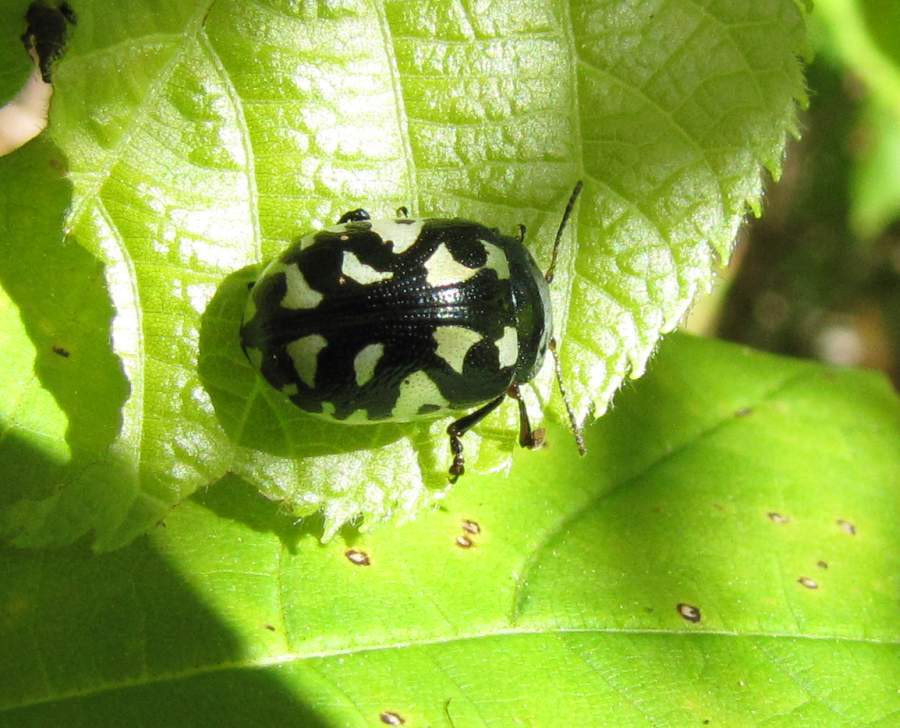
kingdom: Animalia
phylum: Arthropoda
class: Insecta
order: Coleoptera
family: Chrysomelidae
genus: Calligrapha
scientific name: Calligrapha pnirsa
